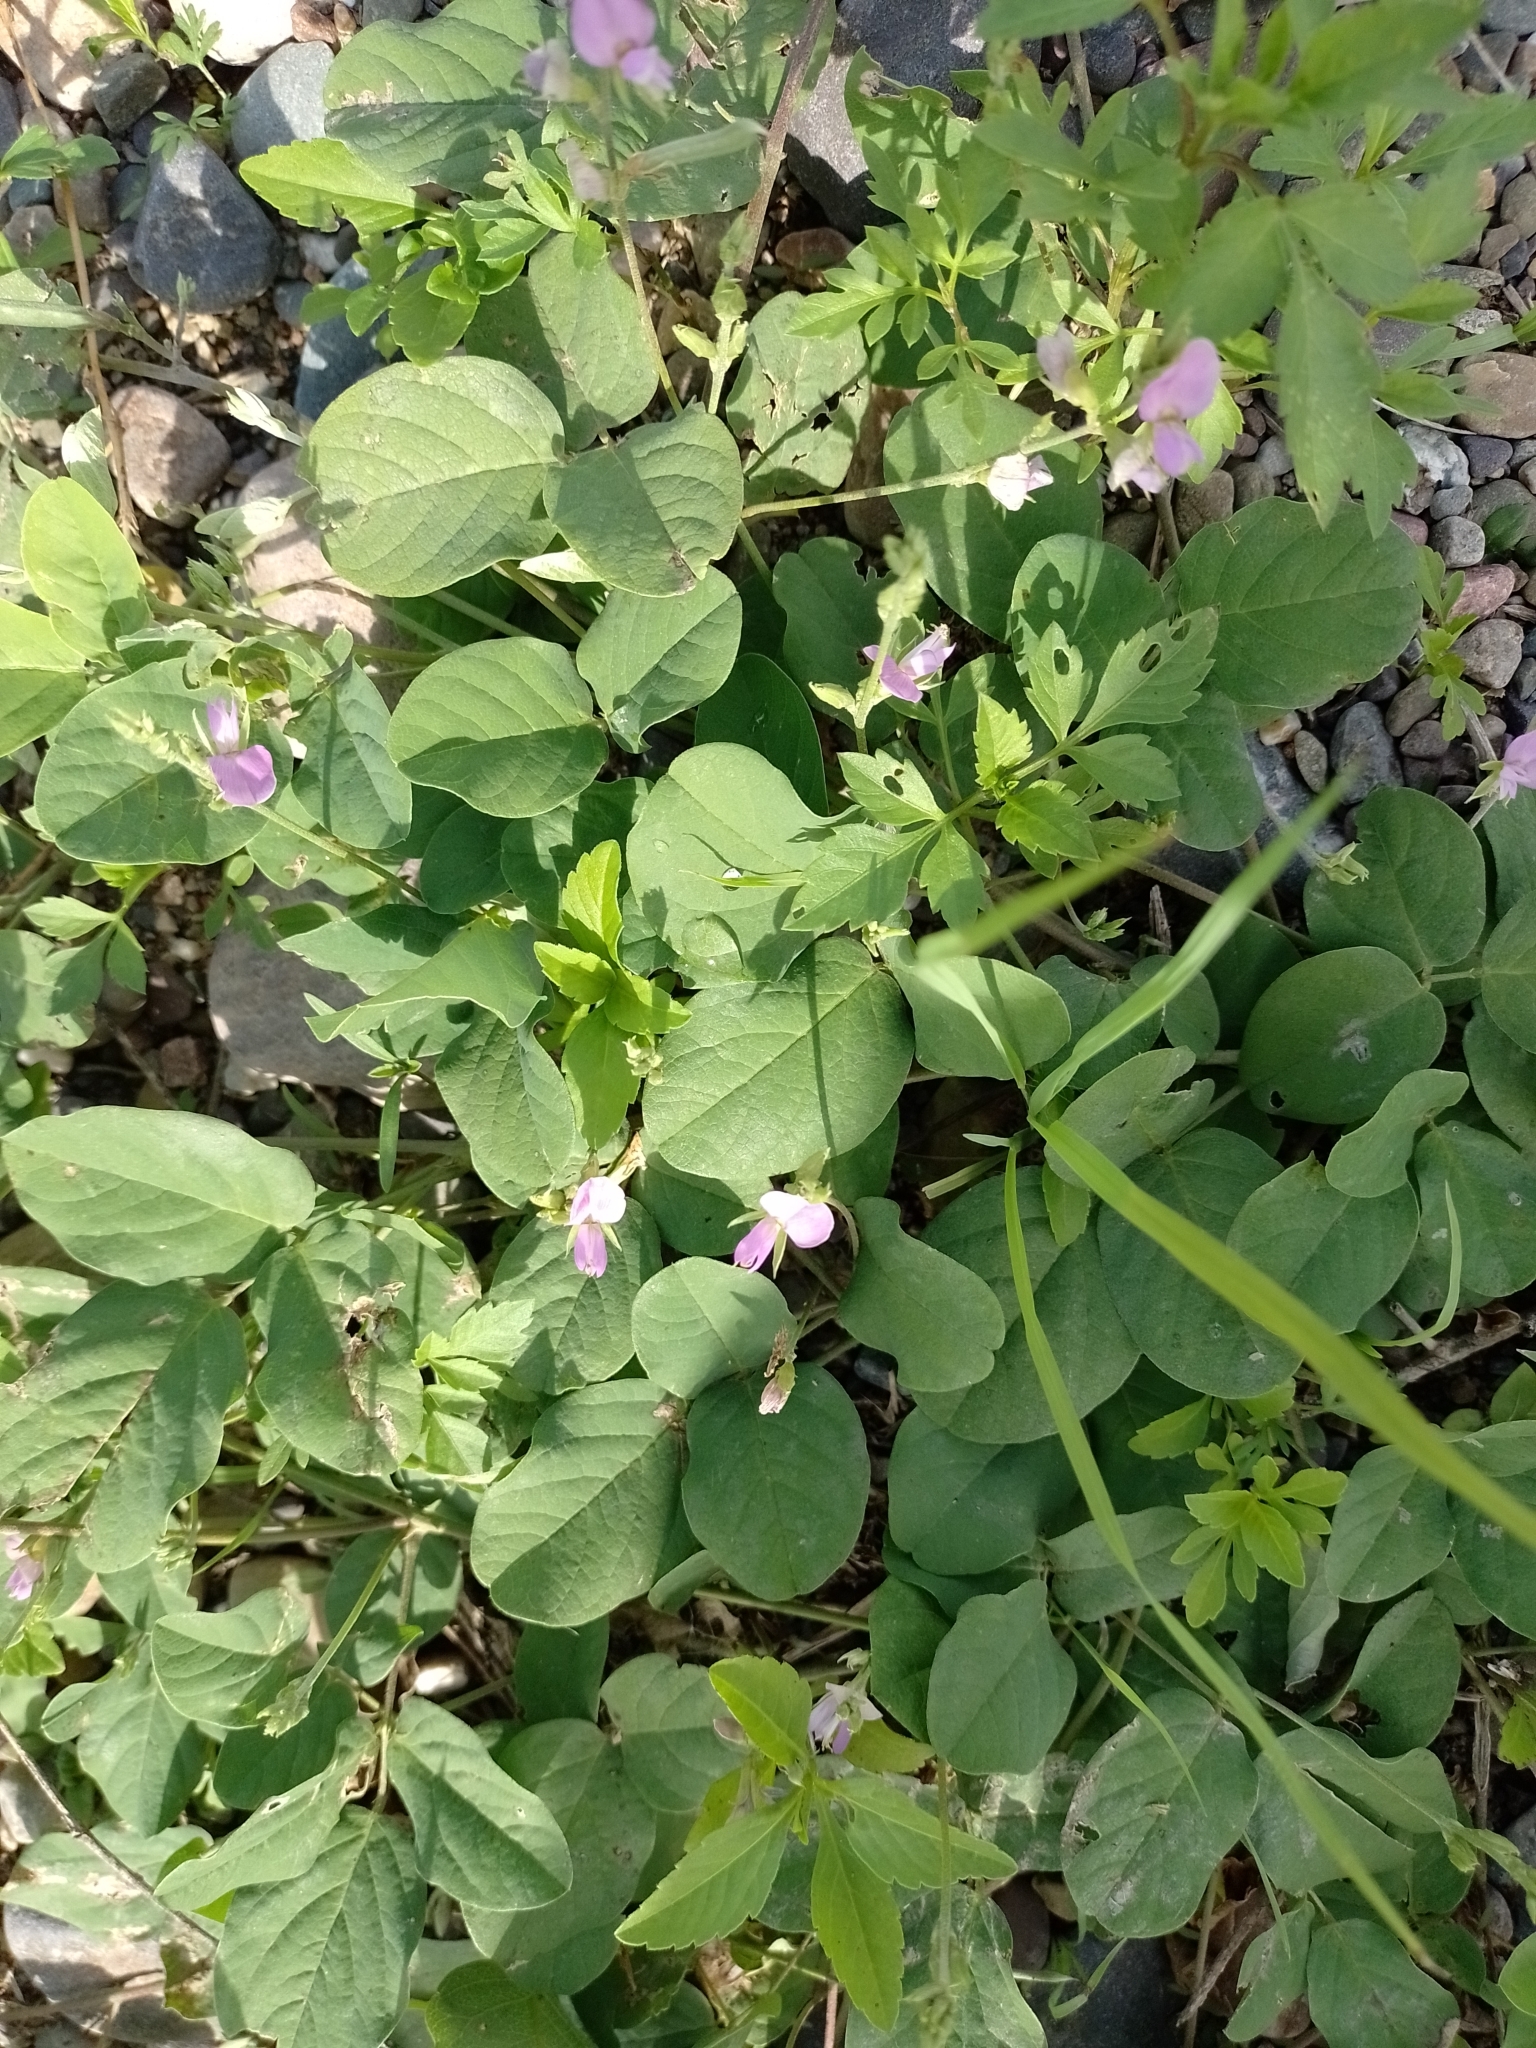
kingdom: Plantae
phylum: Tracheophyta
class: Magnoliopsida
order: Fabales
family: Fabaceae
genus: Galactia
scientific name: Galactia latisiliqua
